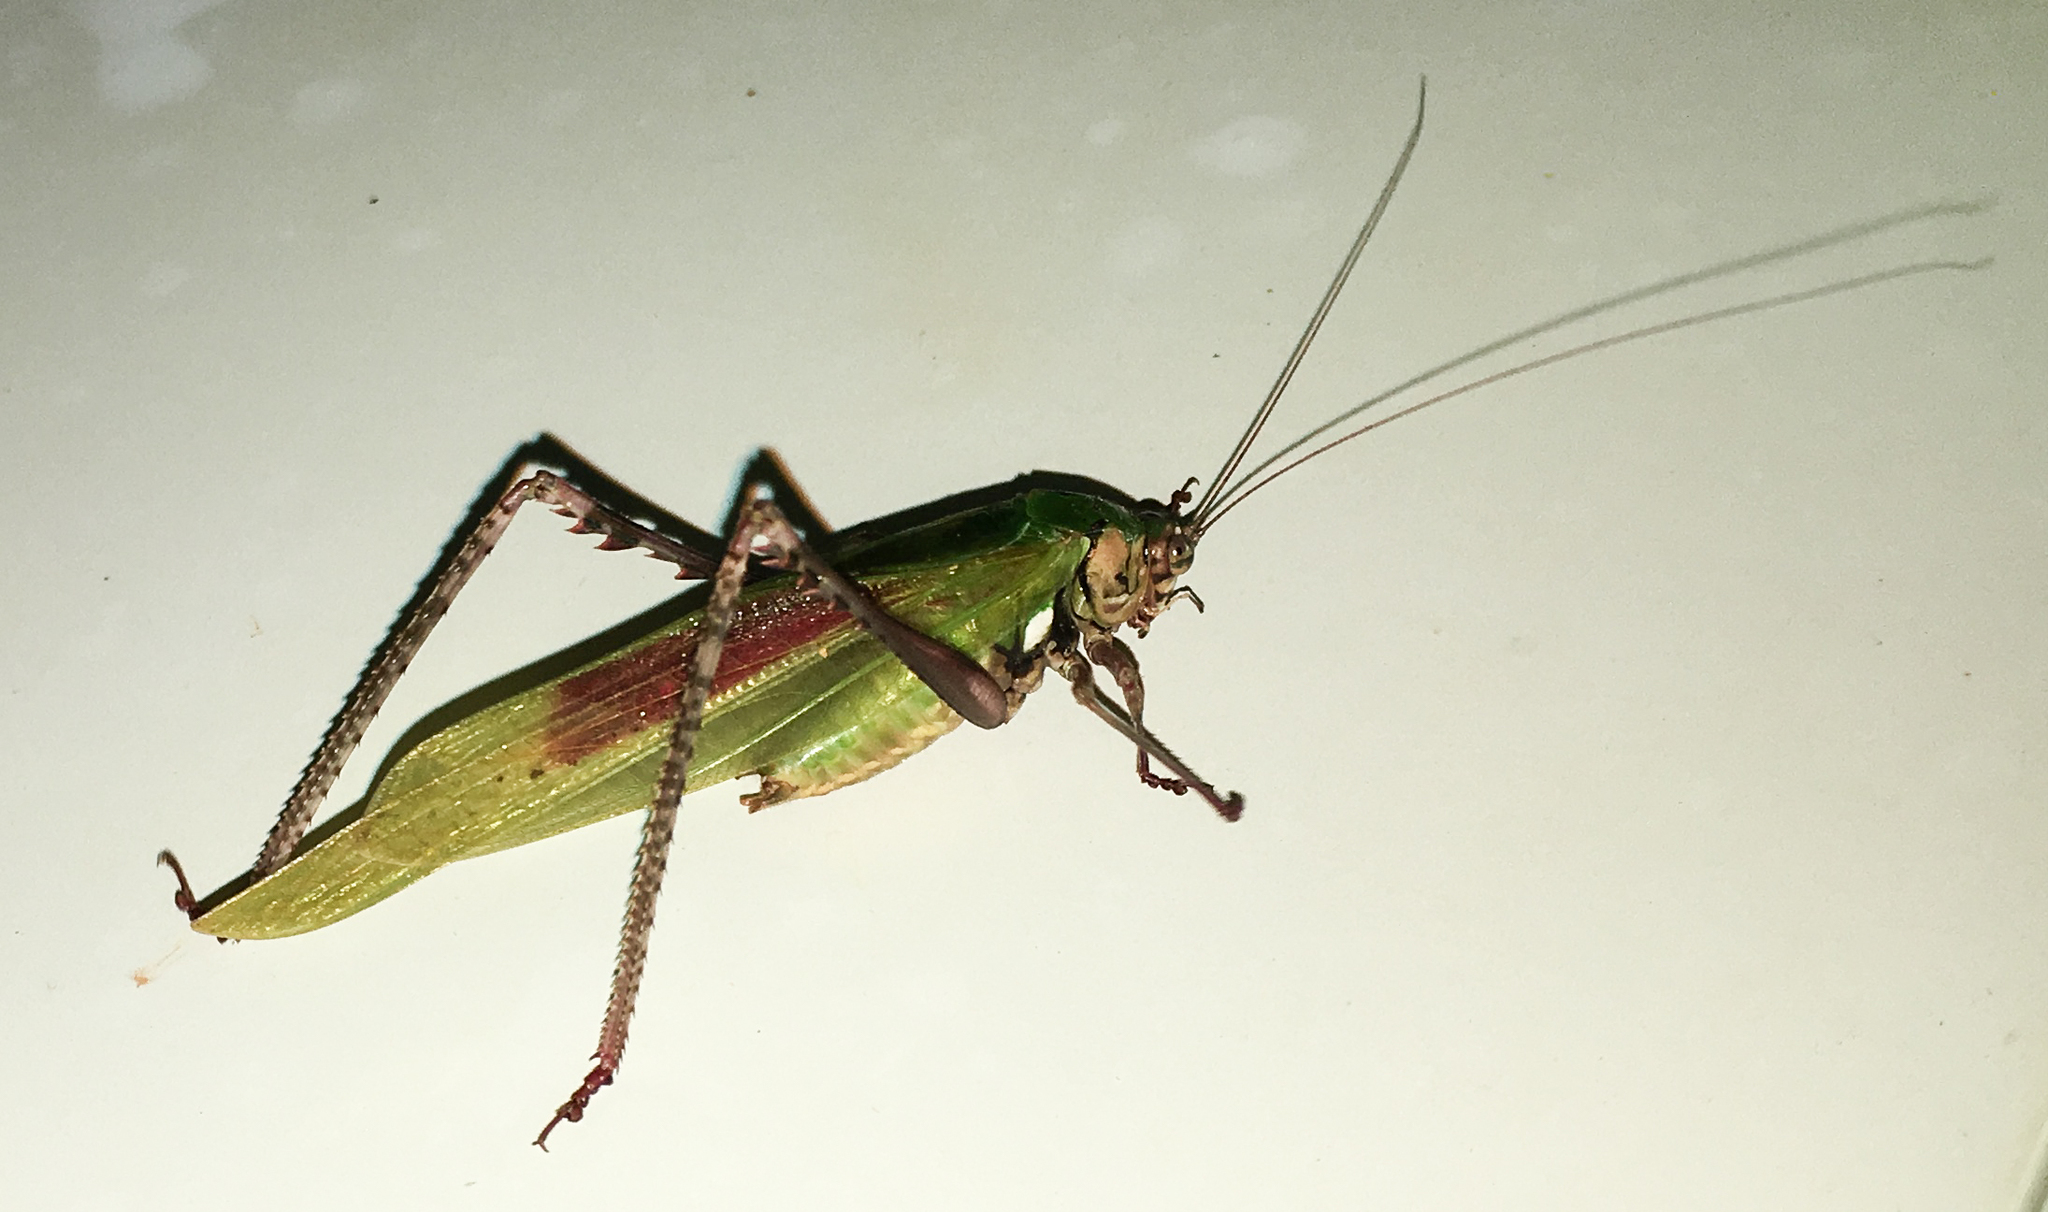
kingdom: Animalia
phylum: Arthropoda
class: Insecta
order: Orthoptera
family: Tettigoniidae
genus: Vellea
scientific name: Vellea cruenta
